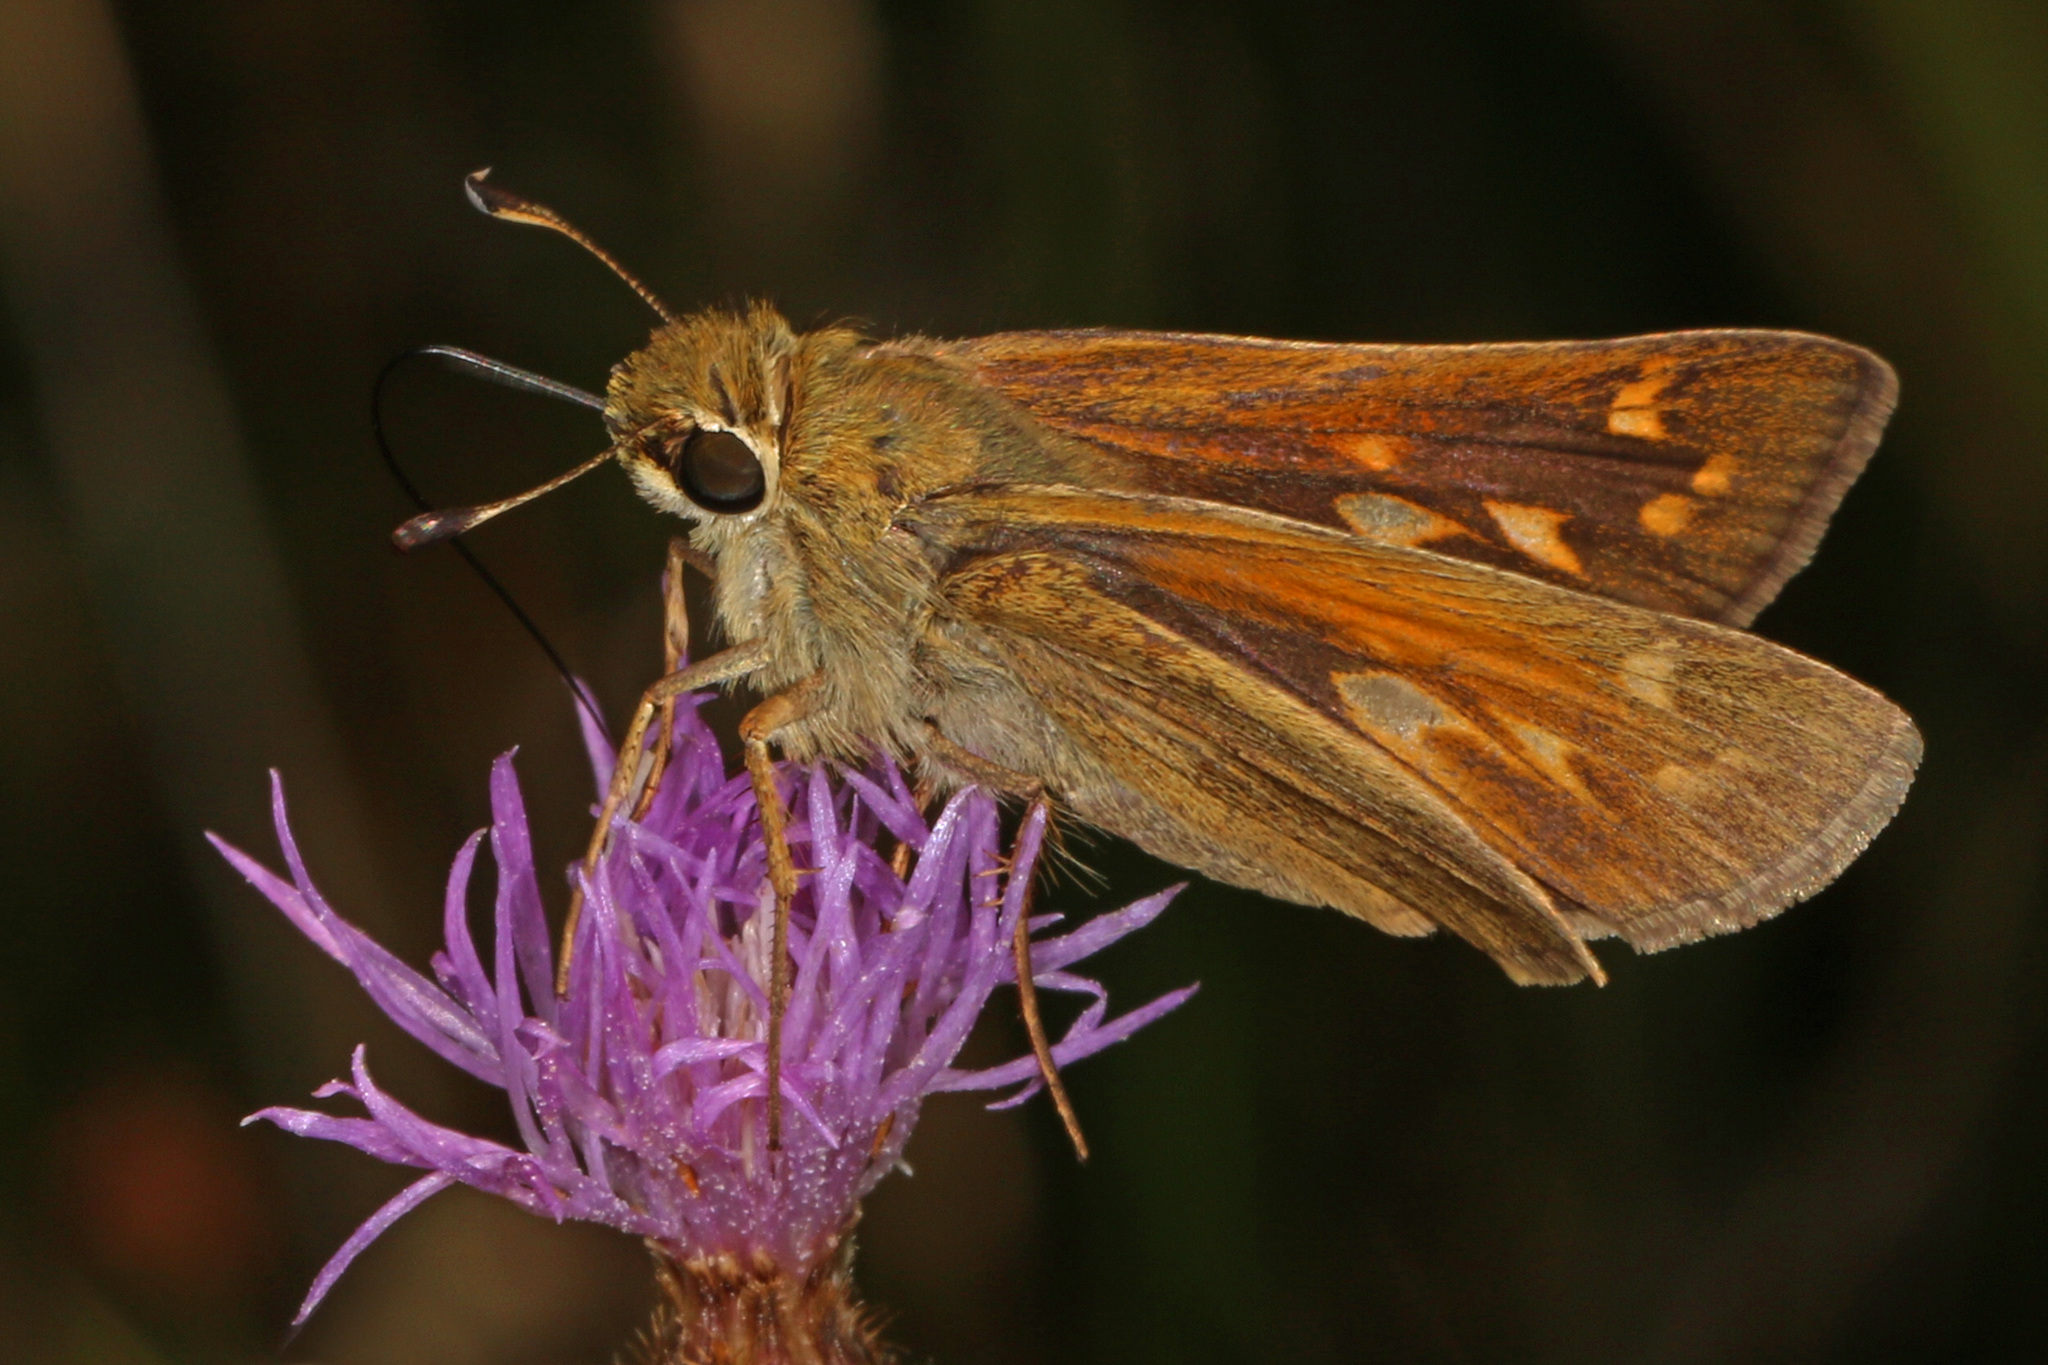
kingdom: Animalia
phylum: Arthropoda
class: Insecta
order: Lepidoptera
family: Hesperiidae
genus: Atalopedes
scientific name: Atalopedes
